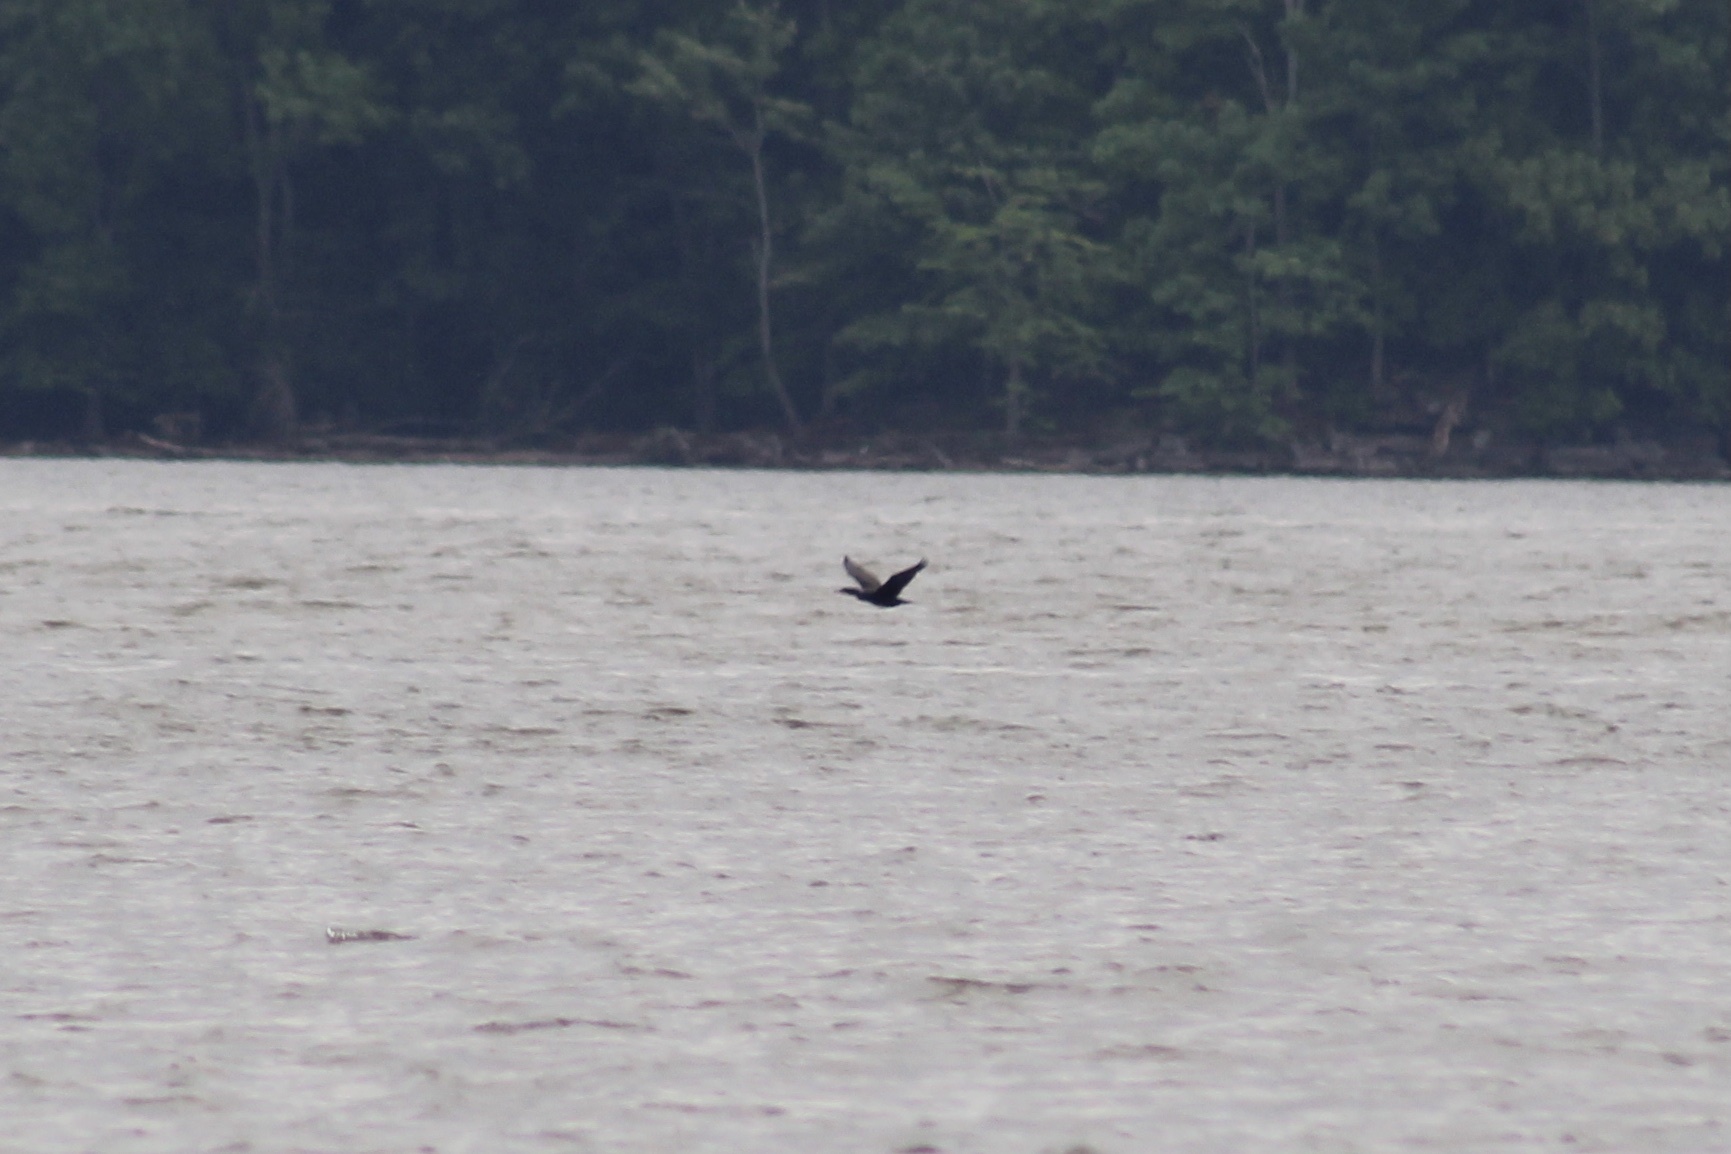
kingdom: Animalia
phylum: Chordata
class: Aves
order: Suliformes
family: Phalacrocoracidae
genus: Phalacrocorax
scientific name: Phalacrocorax auritus
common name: Double-crested cormorant
